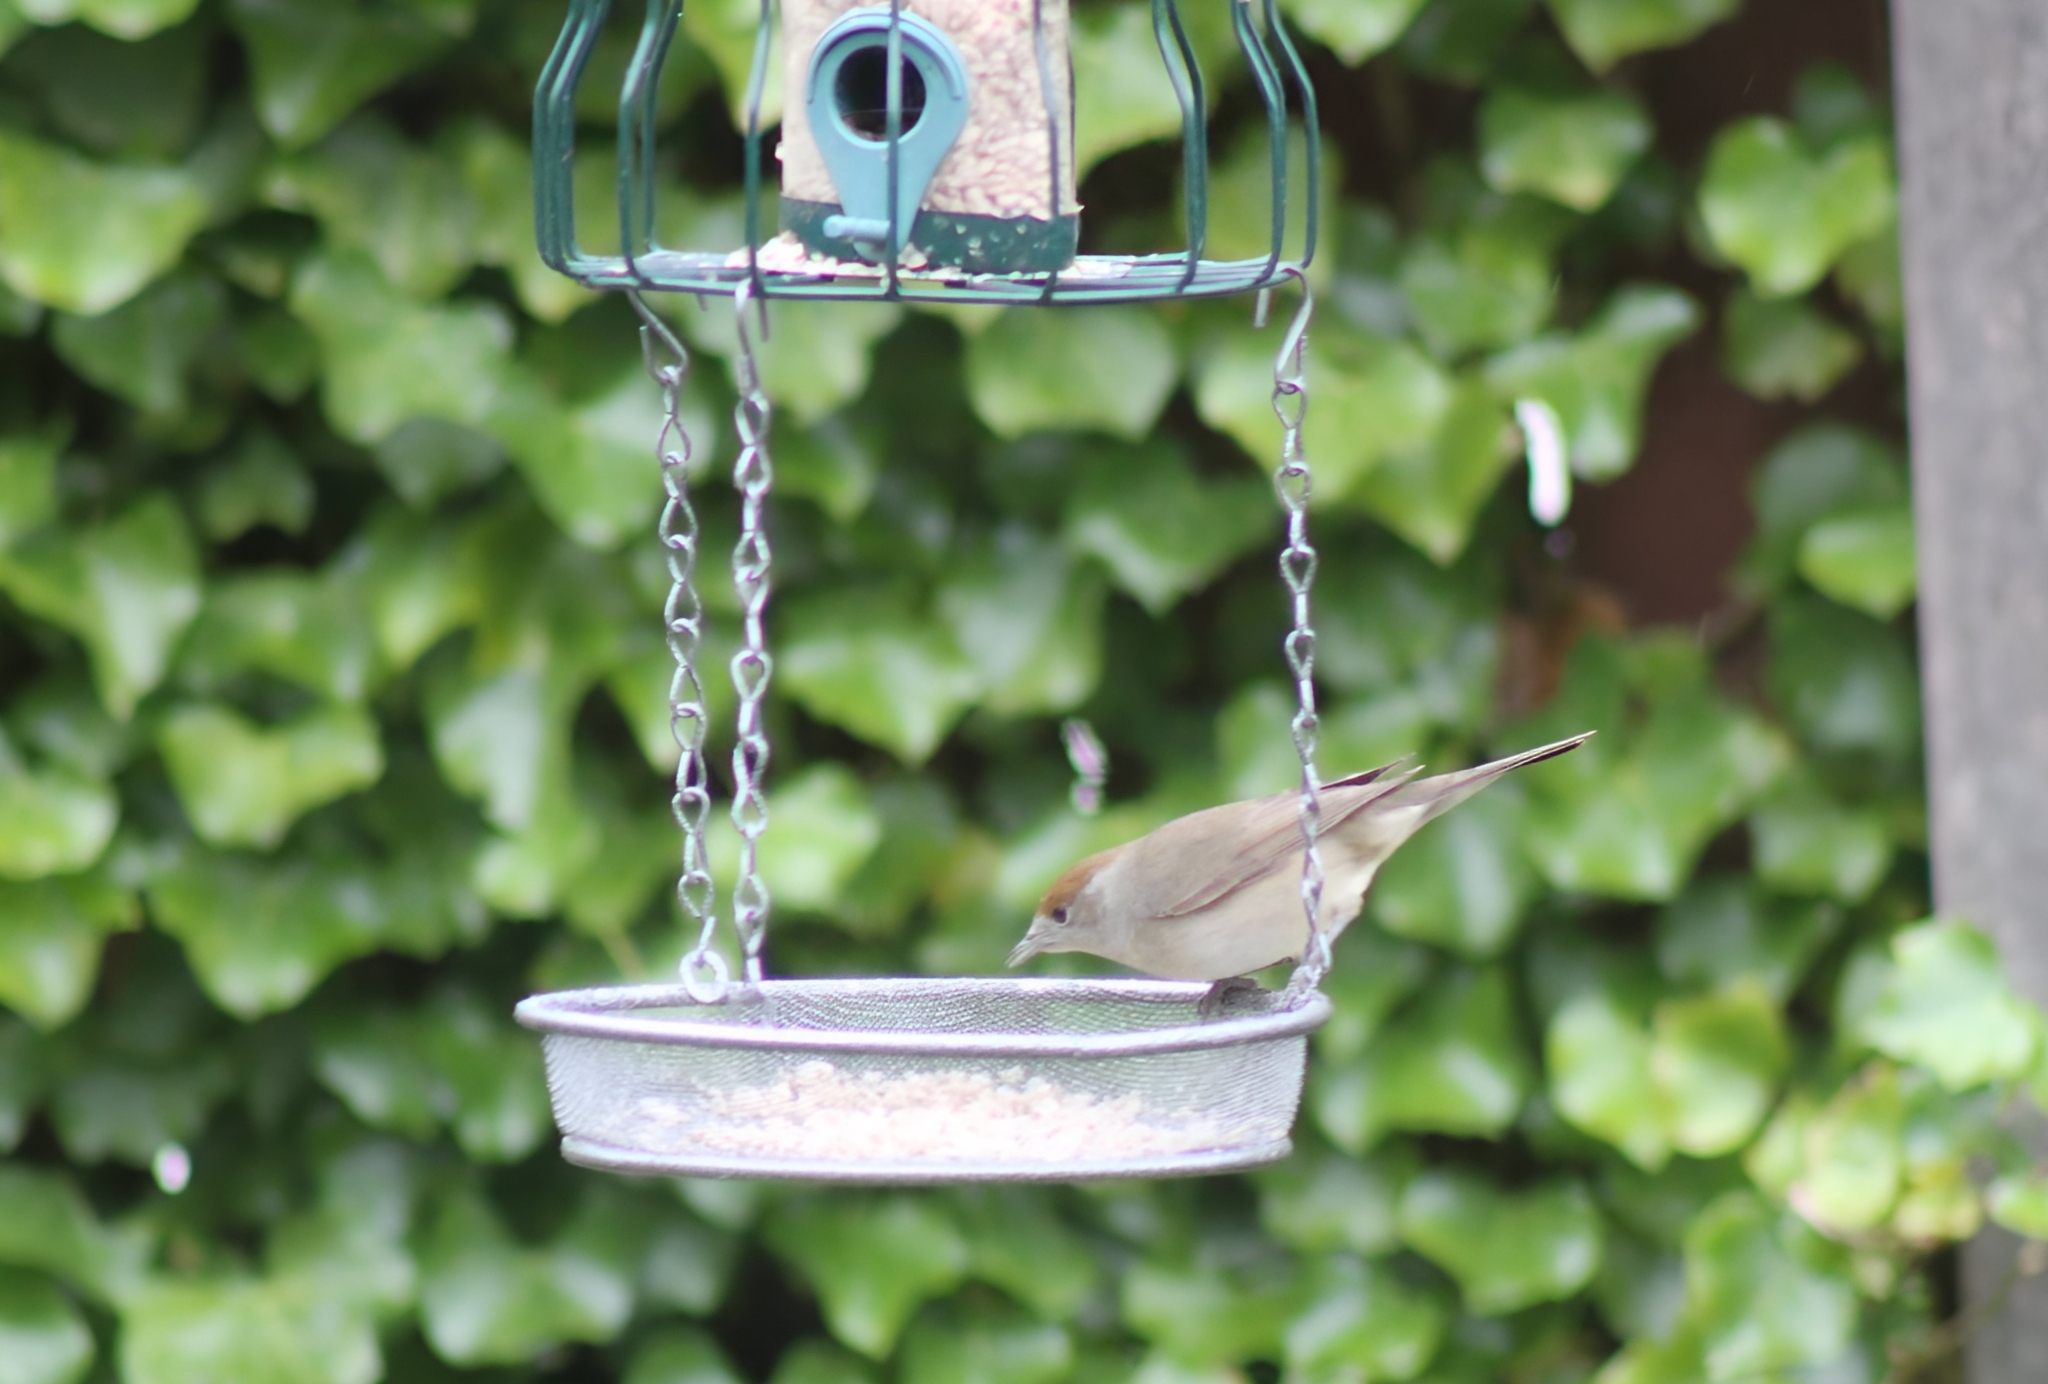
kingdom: Animalia
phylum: Chordata
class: Aves
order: Passeriformes
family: Sylviidae
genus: Sylvia
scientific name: Sylvia atricapilla
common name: Eurasian blackcap
